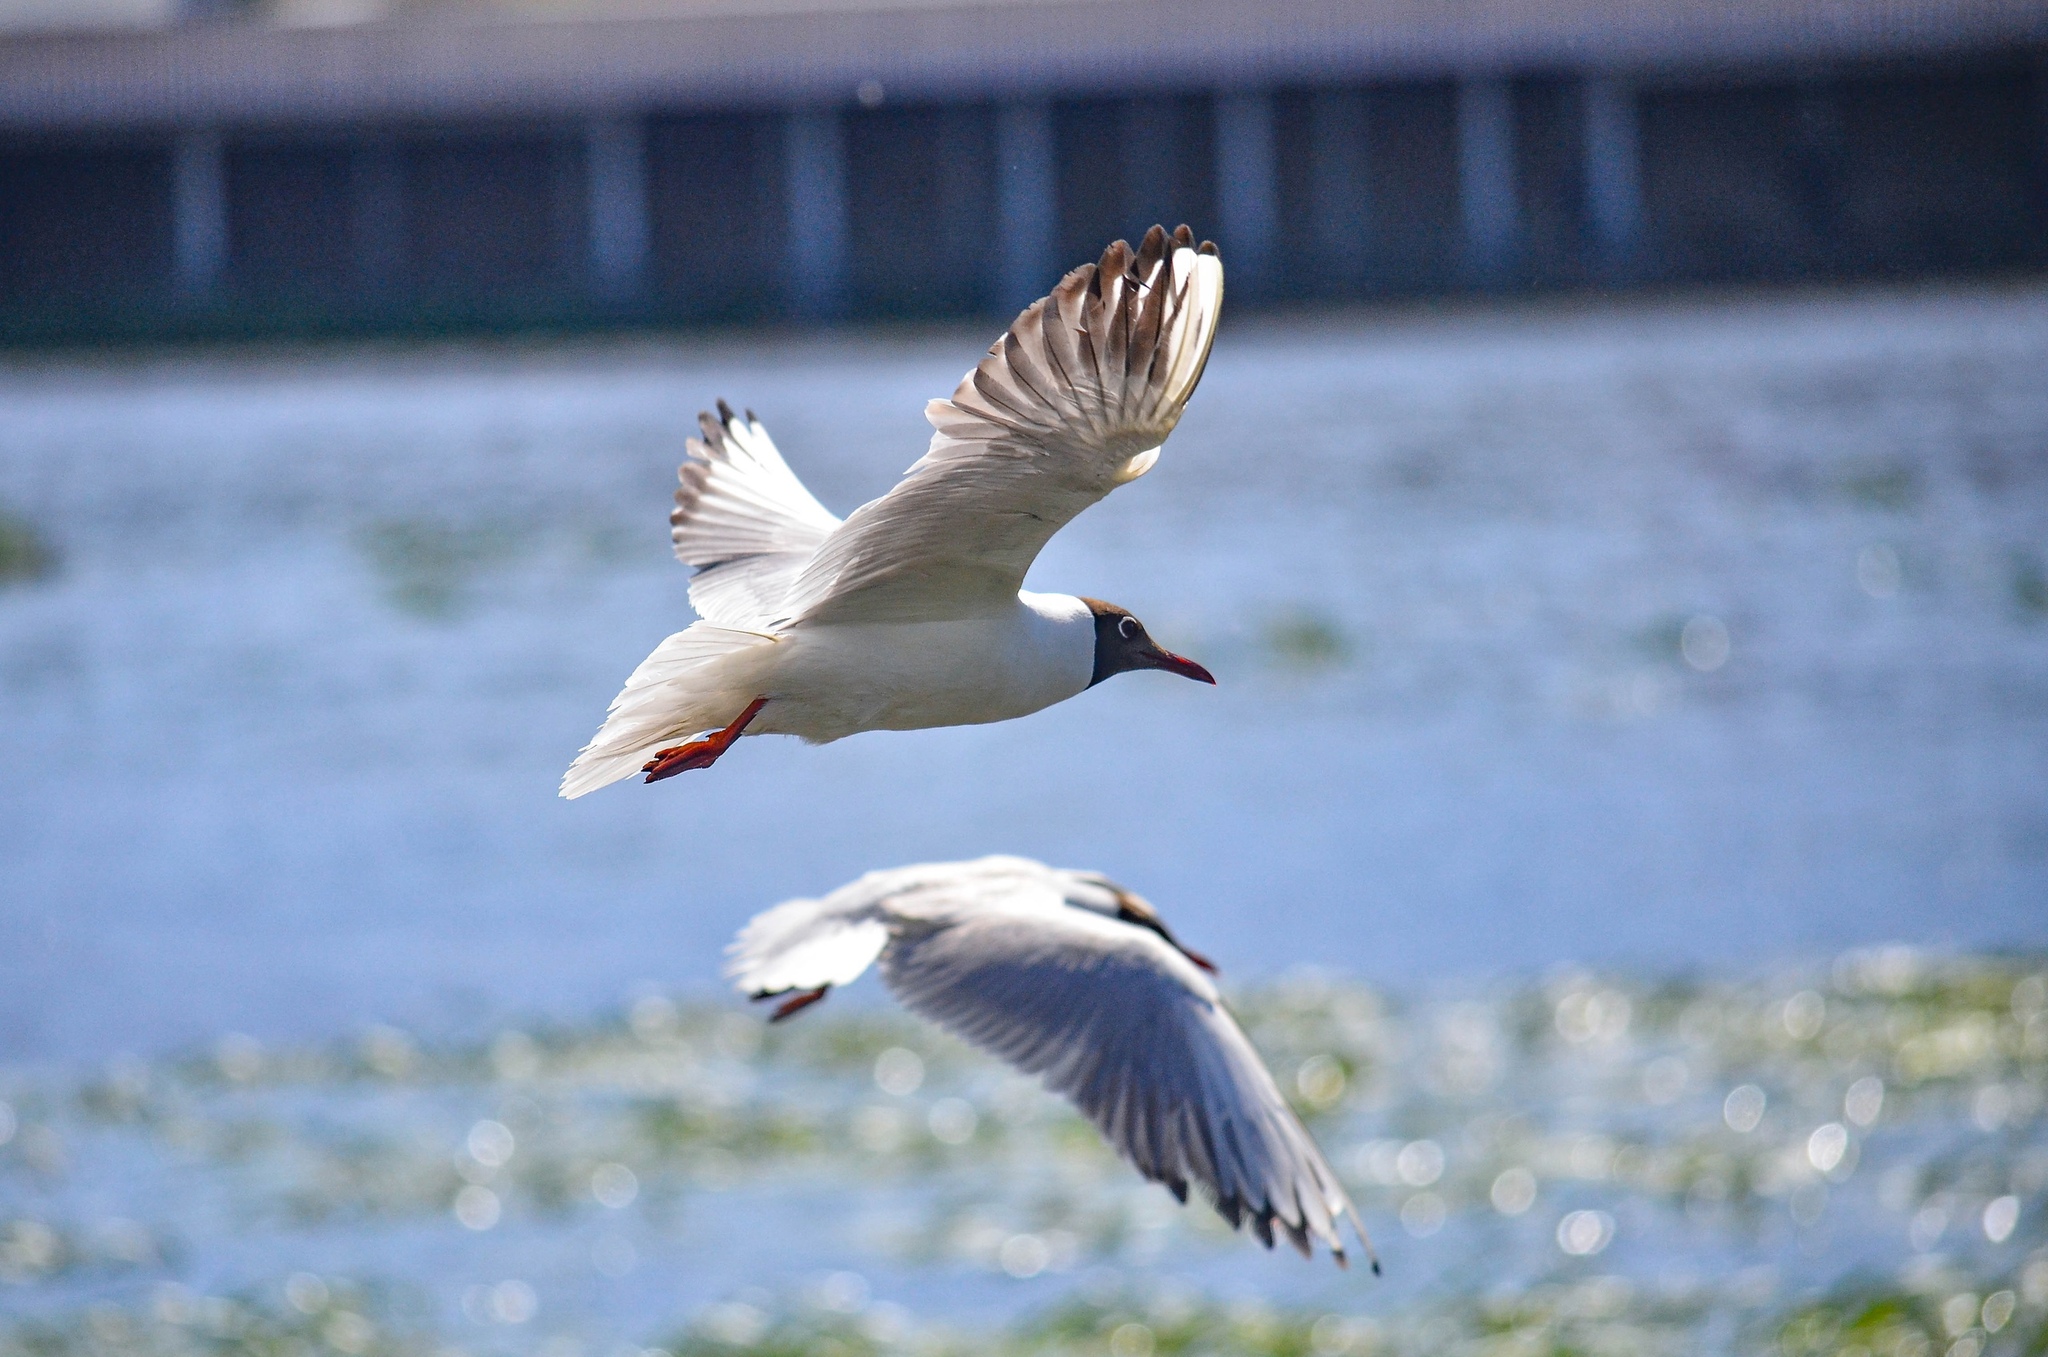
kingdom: Animalia
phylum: Chordata
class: Aves
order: Charadriiformes
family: Laridae
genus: Chroicocephalus
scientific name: Chroicocephalus ridibundus
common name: Black-headed gull
